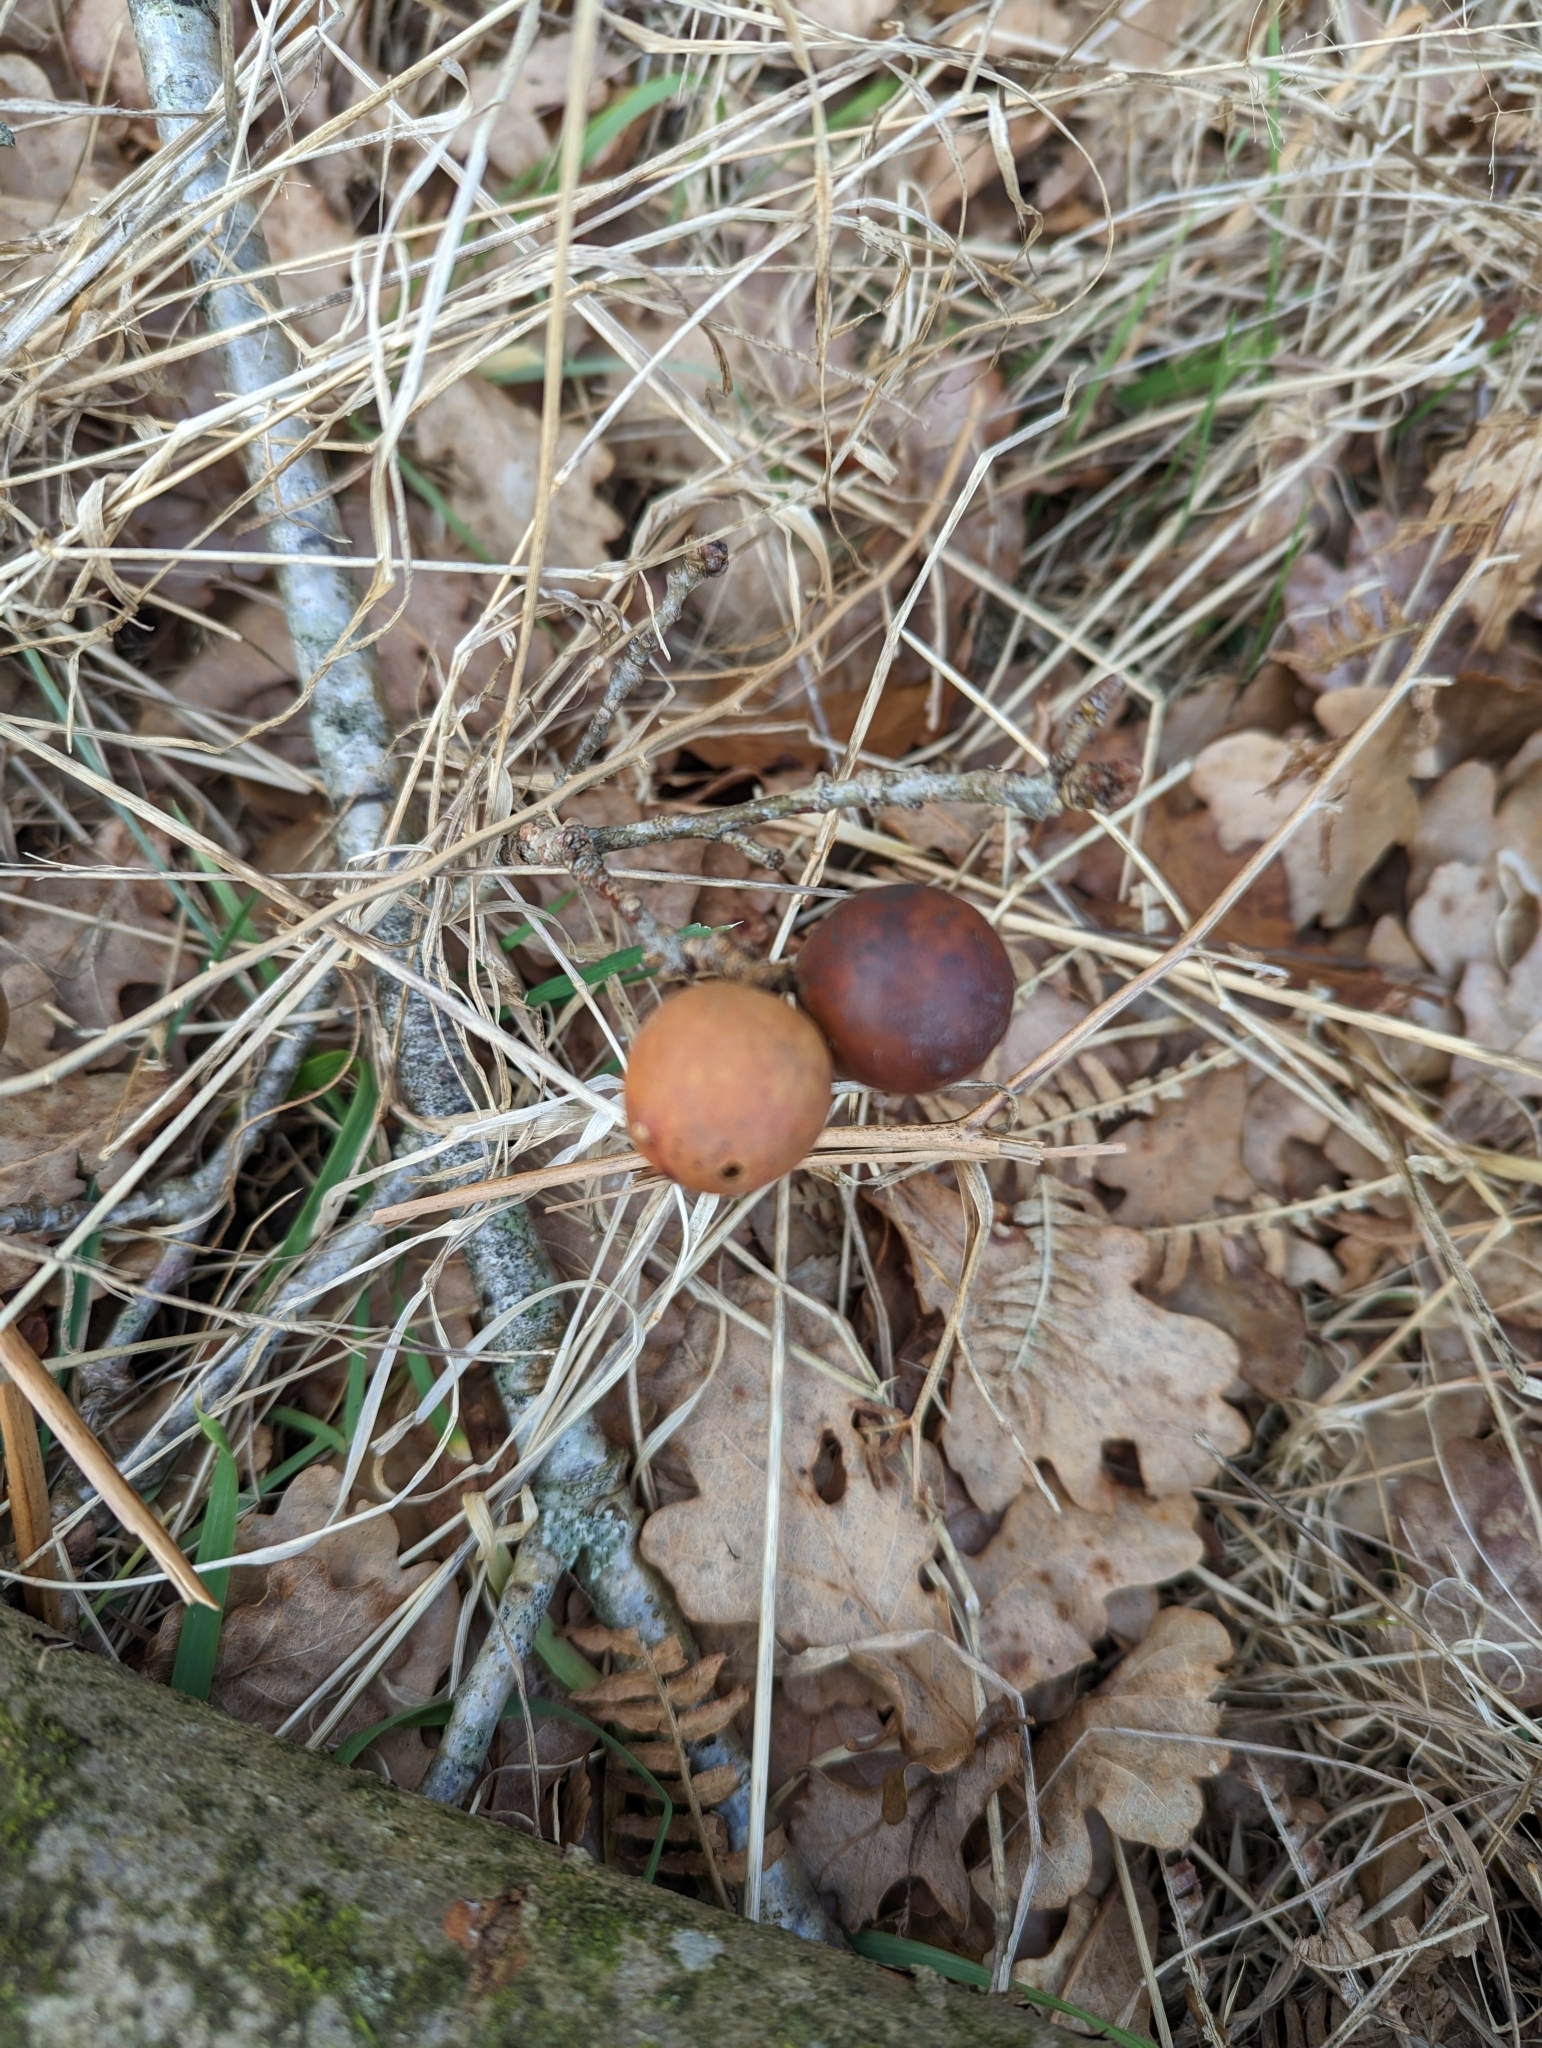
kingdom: Animalia
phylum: Arthropoda
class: Insecta
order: Hymenoptera
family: Cynipidae
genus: Andricus
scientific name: Andricus kollari
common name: Marble gall
